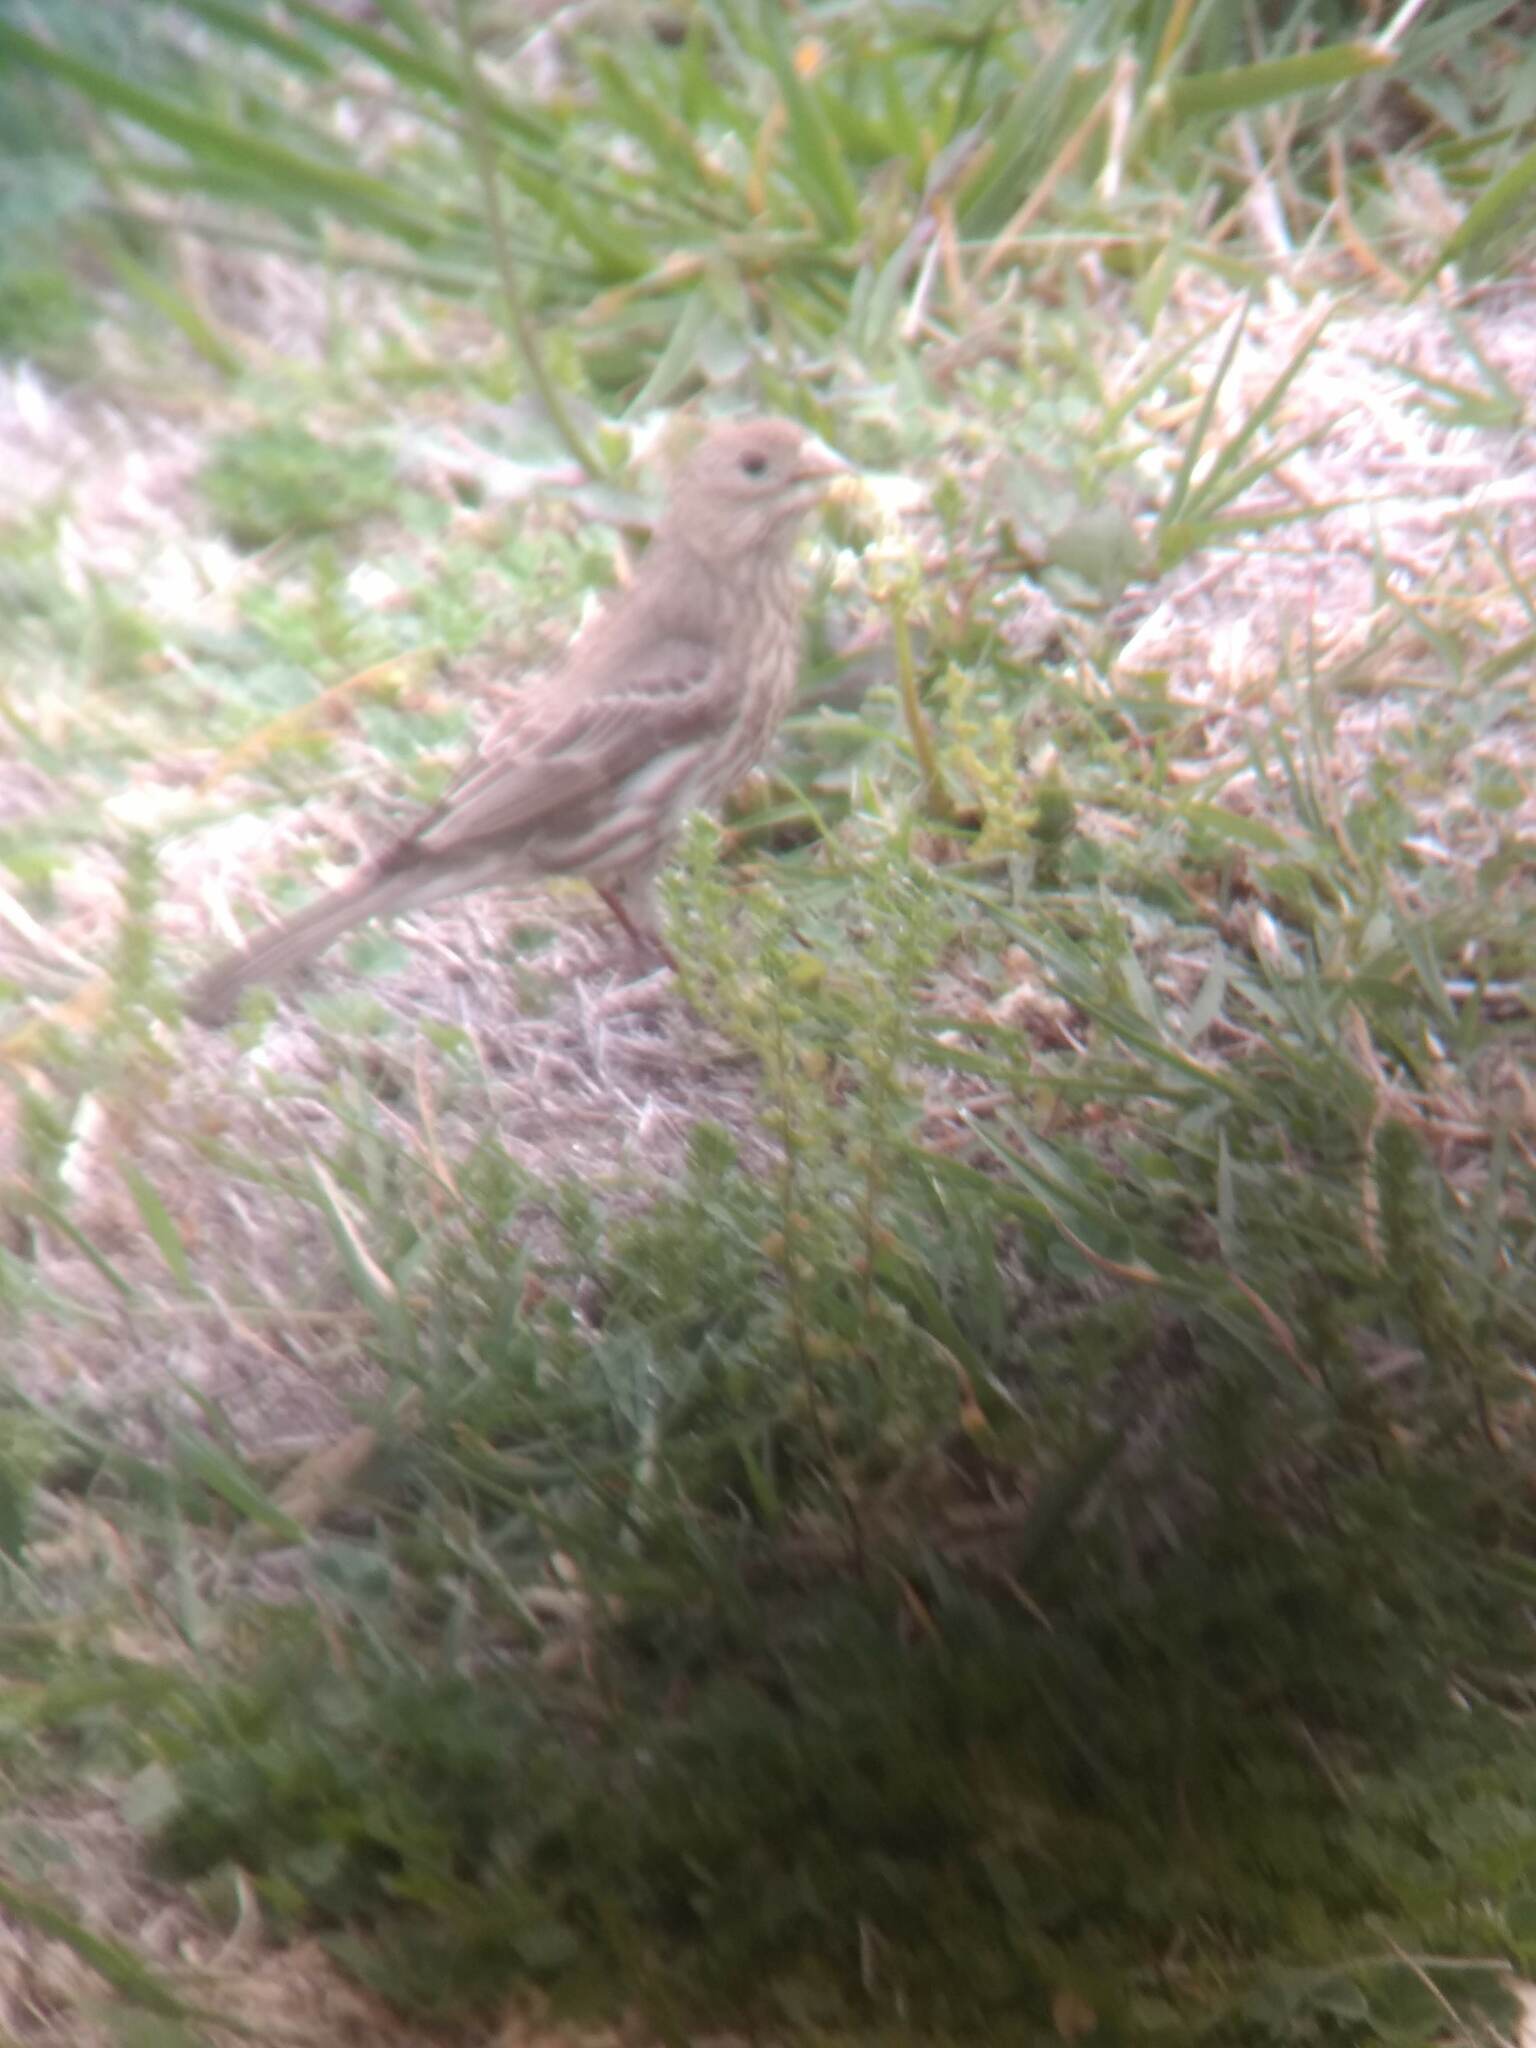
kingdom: Animalia
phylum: Chordata
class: Aves
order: Passeriformes
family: Fringillidae
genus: Haemorhous
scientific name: Haemorhous mexicanus
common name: House finch
